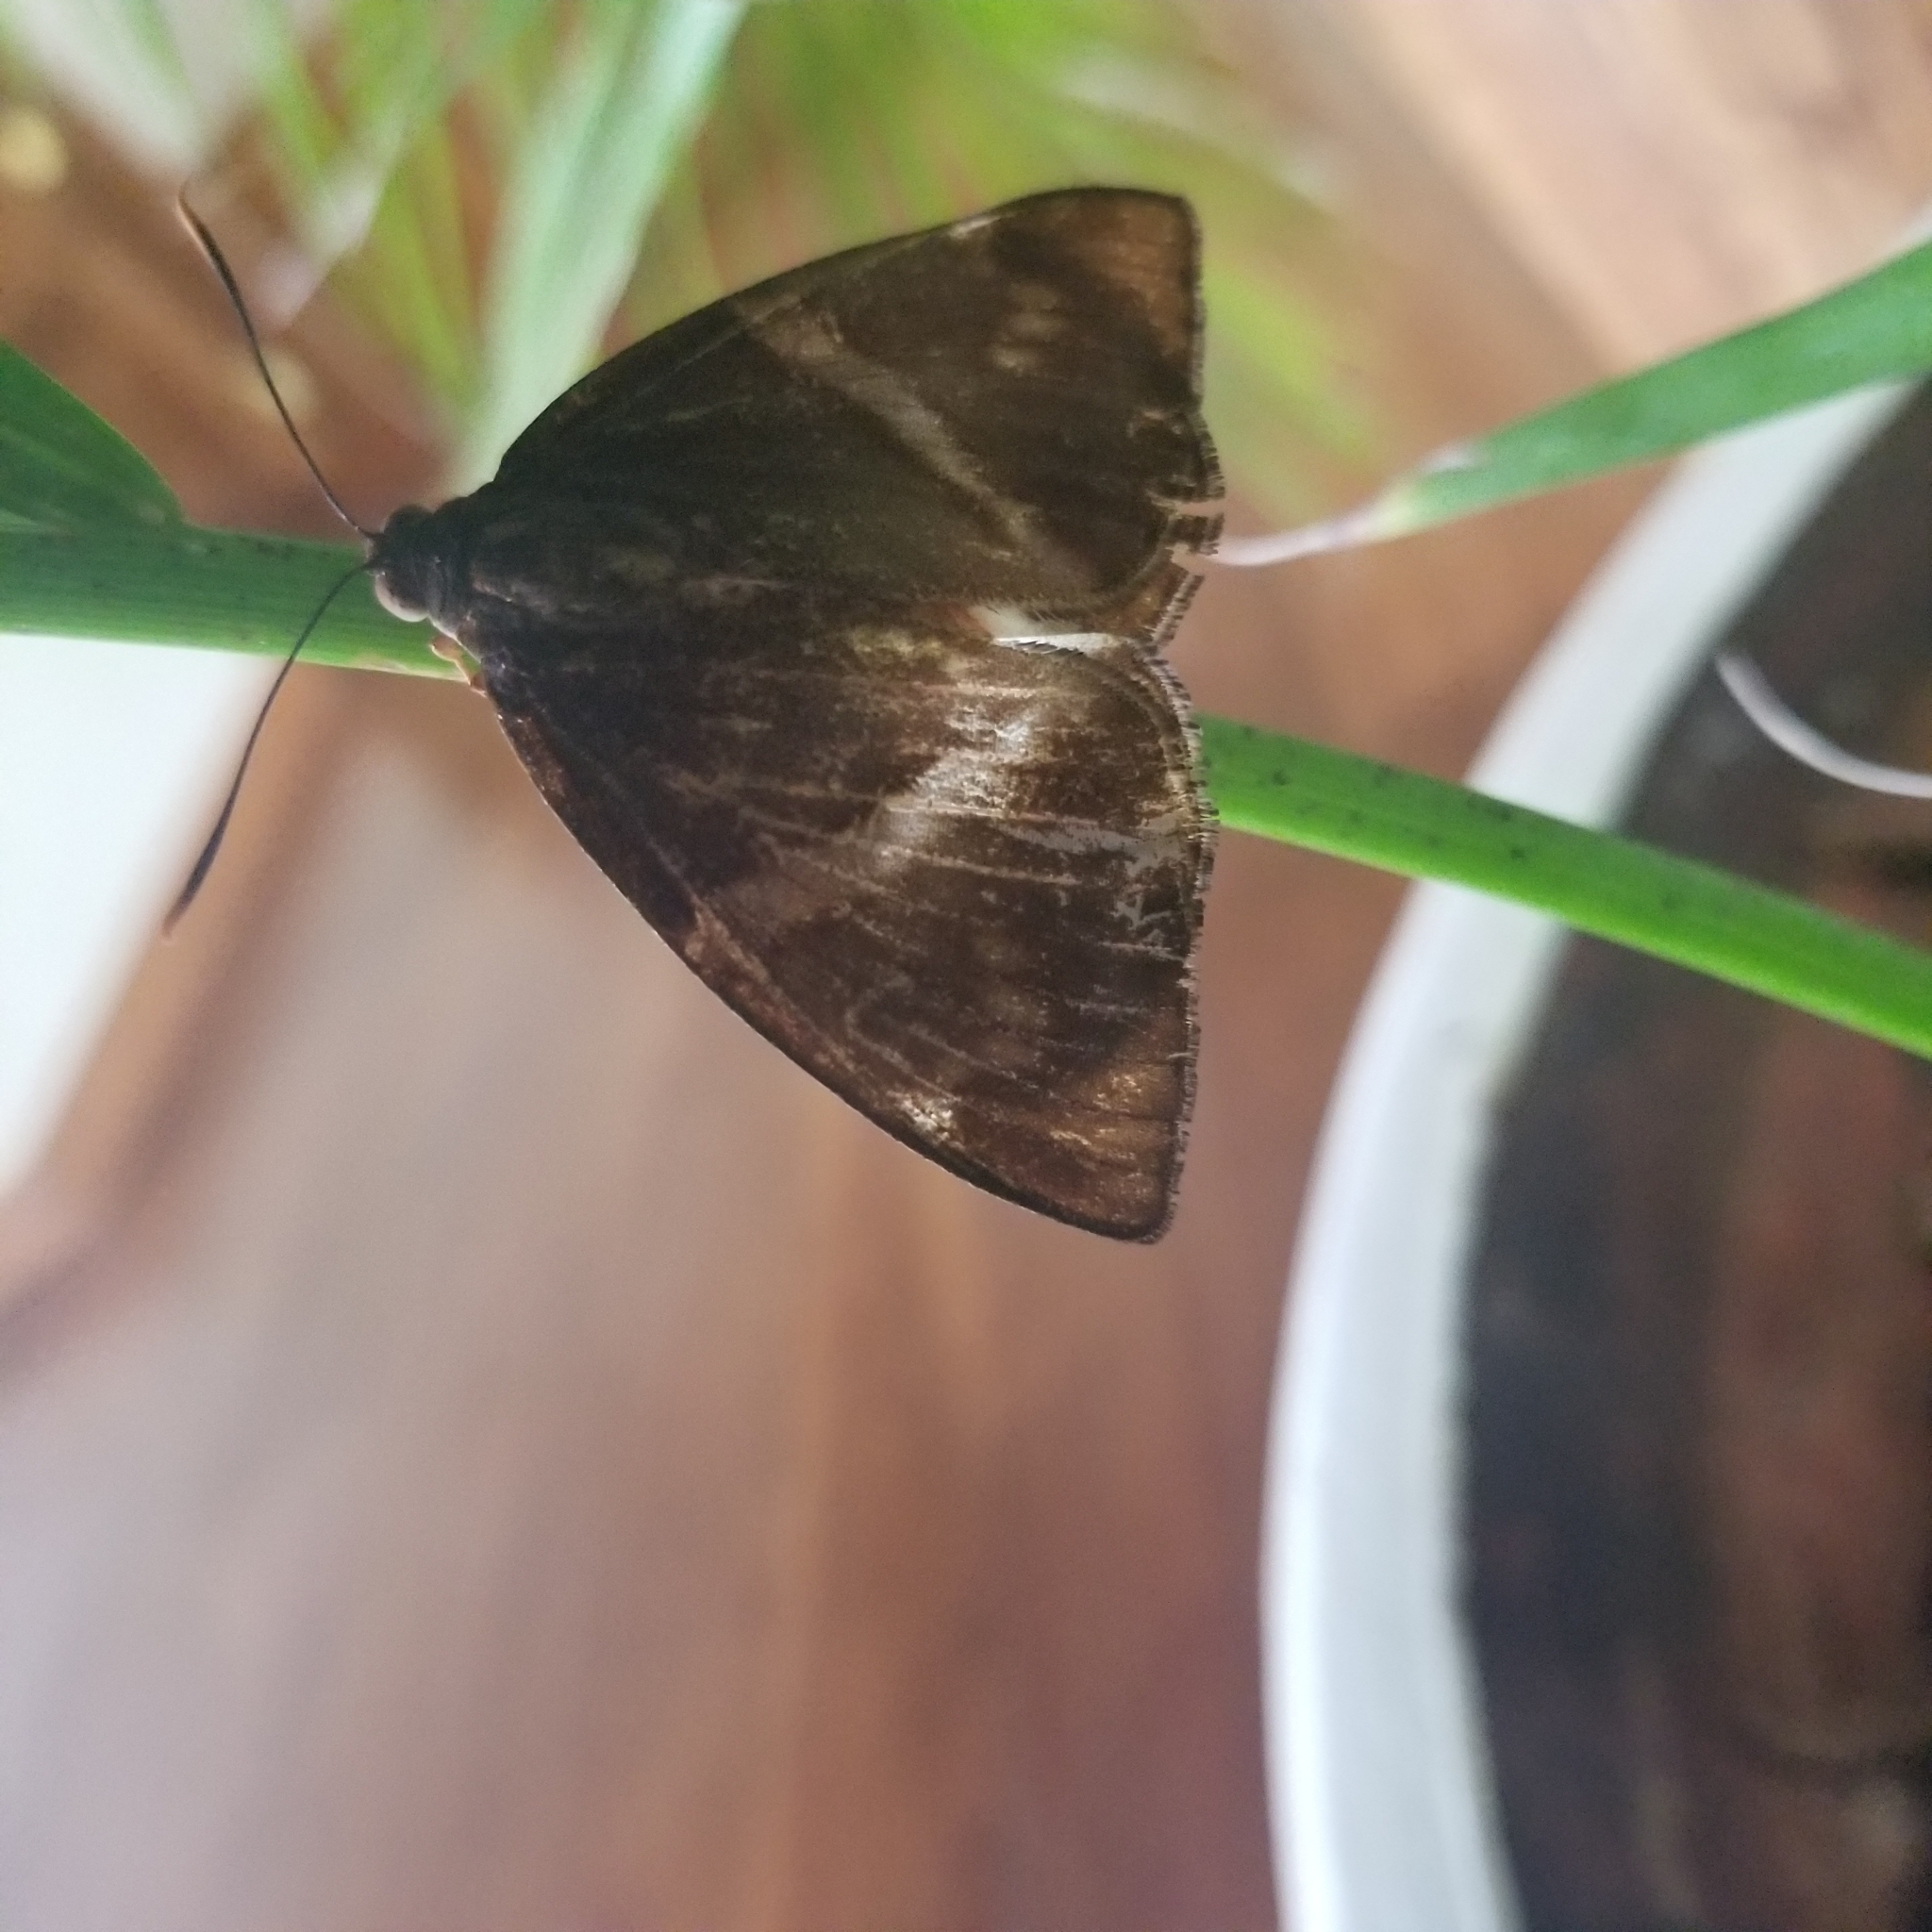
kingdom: Animalia
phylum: Arthropoda
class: Insecta
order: Lepidoptera
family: Castniidae
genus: Castniomera
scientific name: Castniomera atymnius
